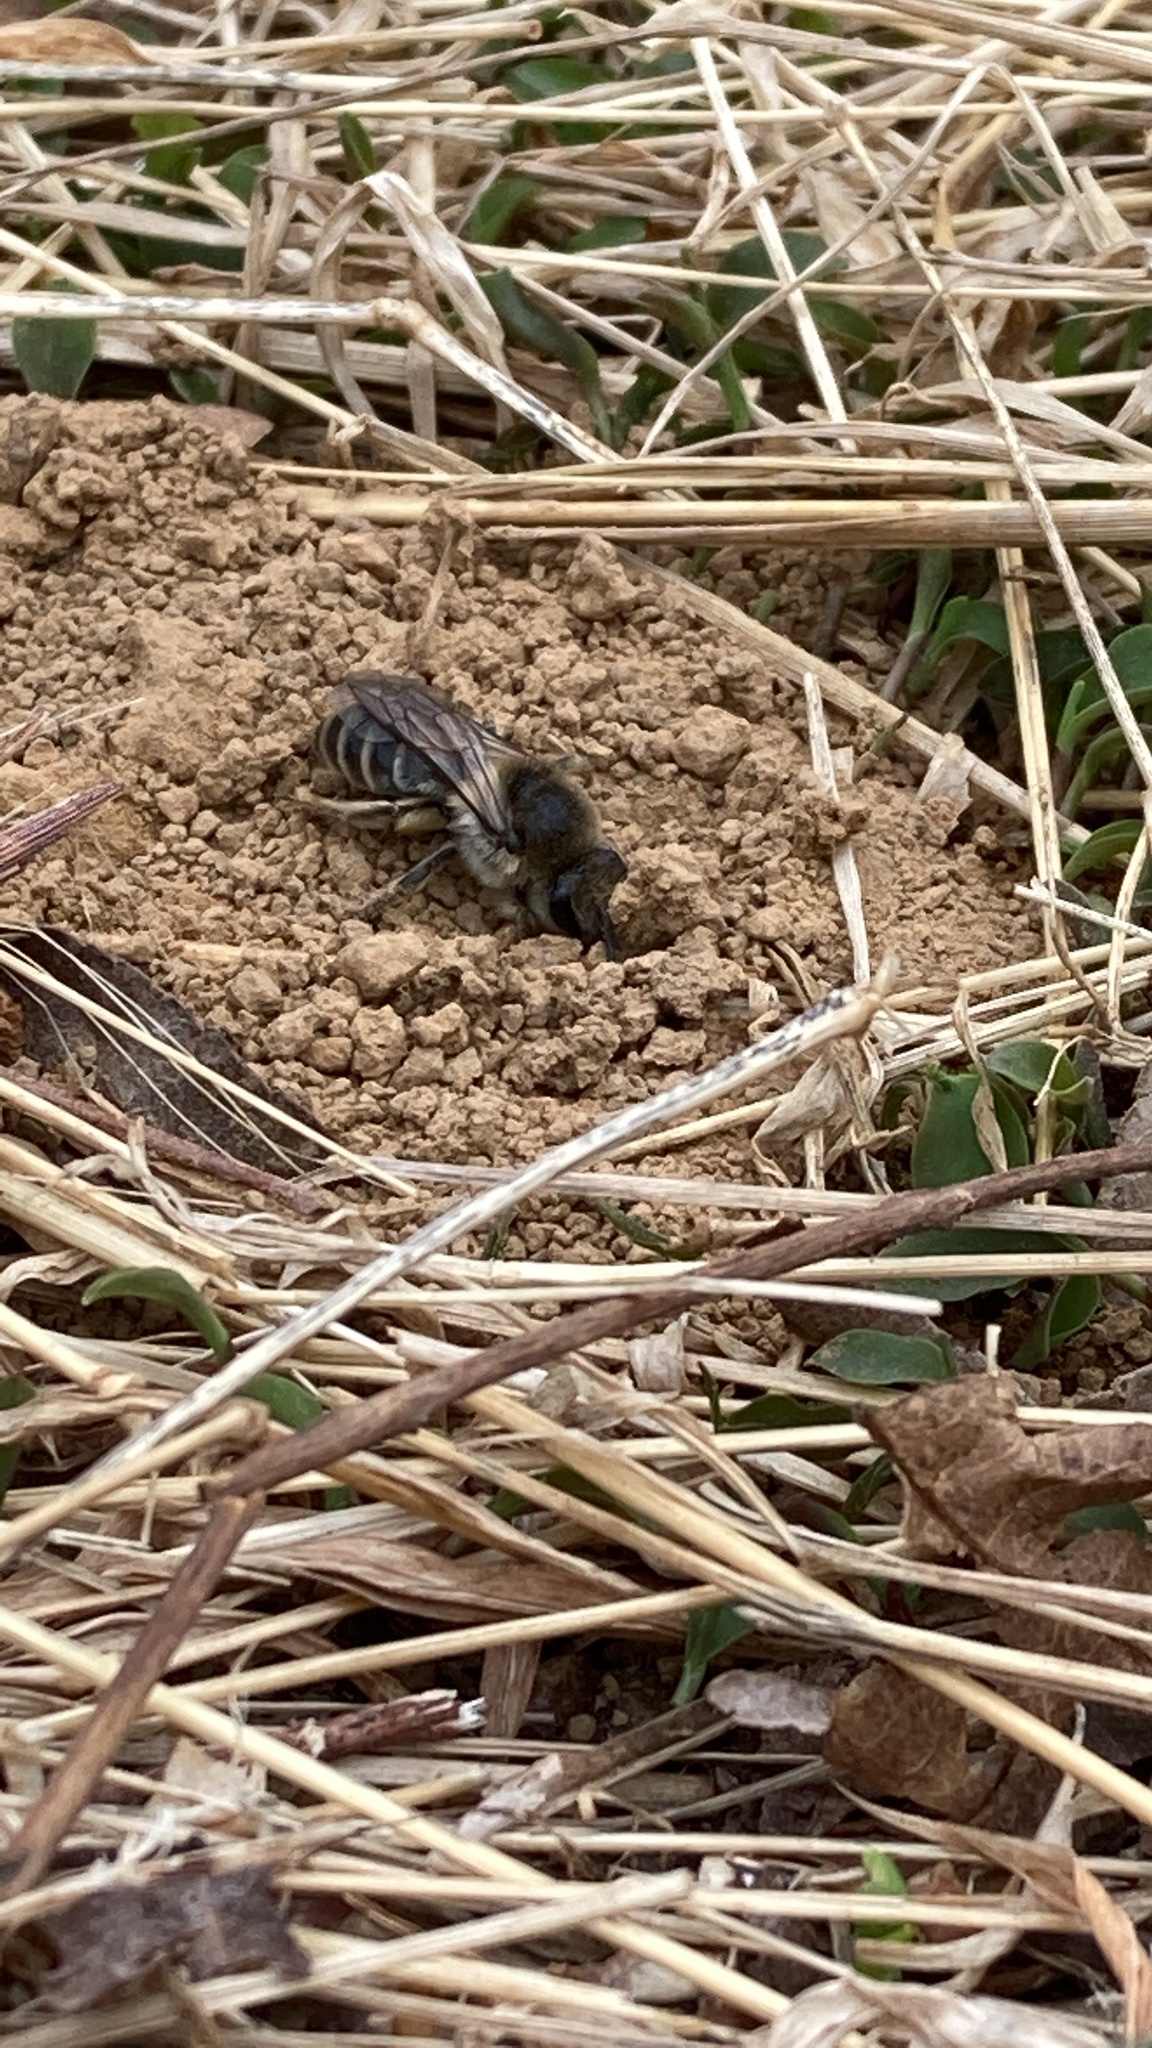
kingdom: Animalia
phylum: Arthropoda
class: Insecta
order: Hymenoptera
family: Colletidae
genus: Colletes
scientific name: Colletes inaequalis
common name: Unequal cellophane bee
